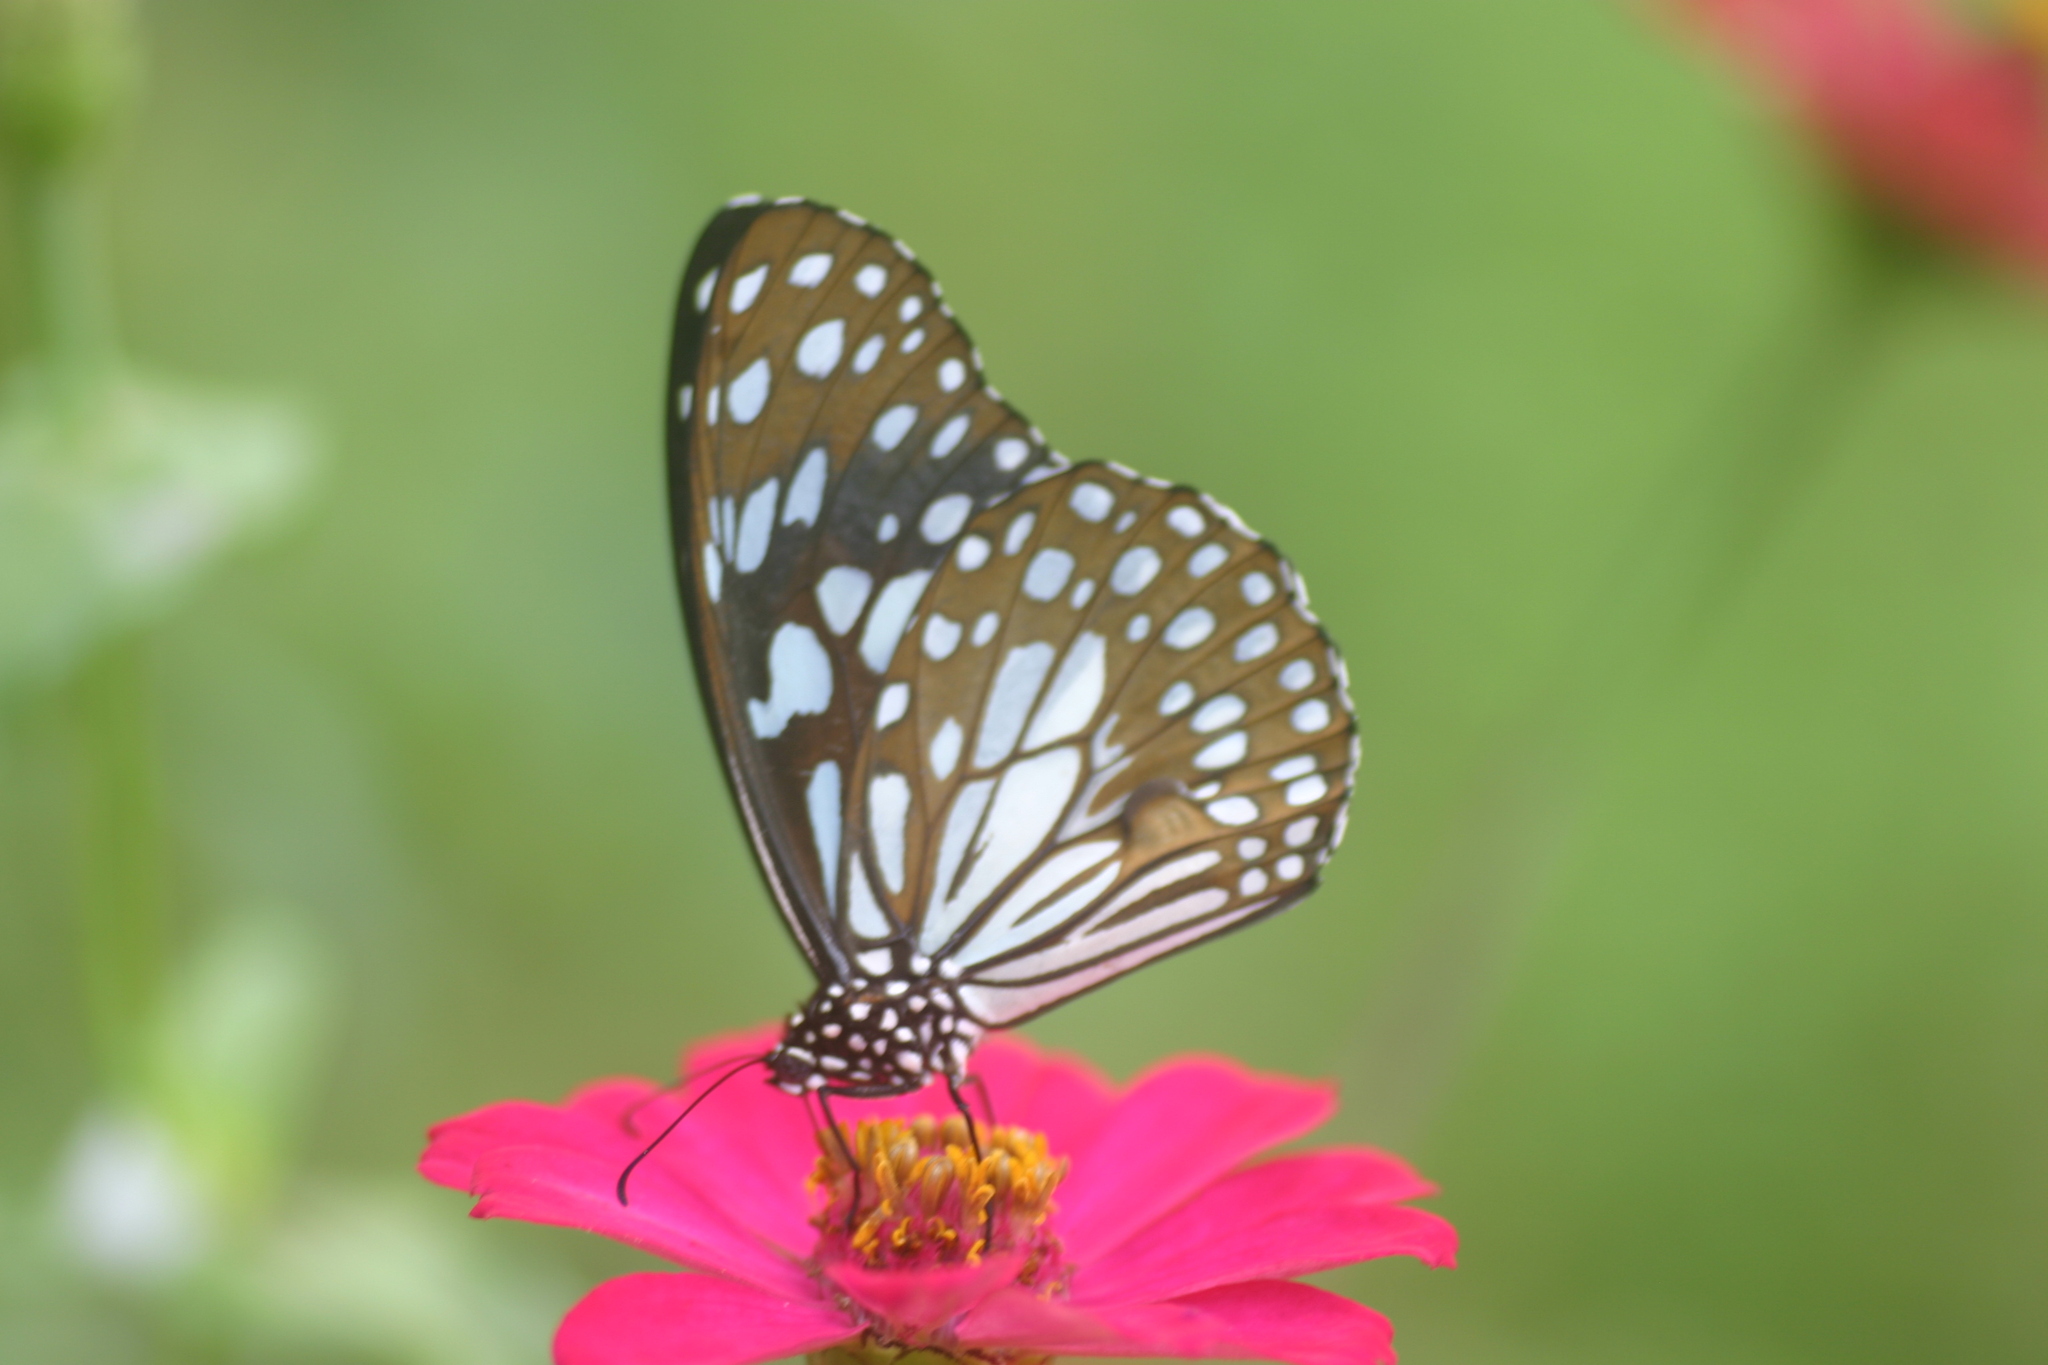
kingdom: Animalia
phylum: Arthropoda
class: Insecta
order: Lepidoptera
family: Nymphalidae
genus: Tirumala
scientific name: Tirumala limniace
